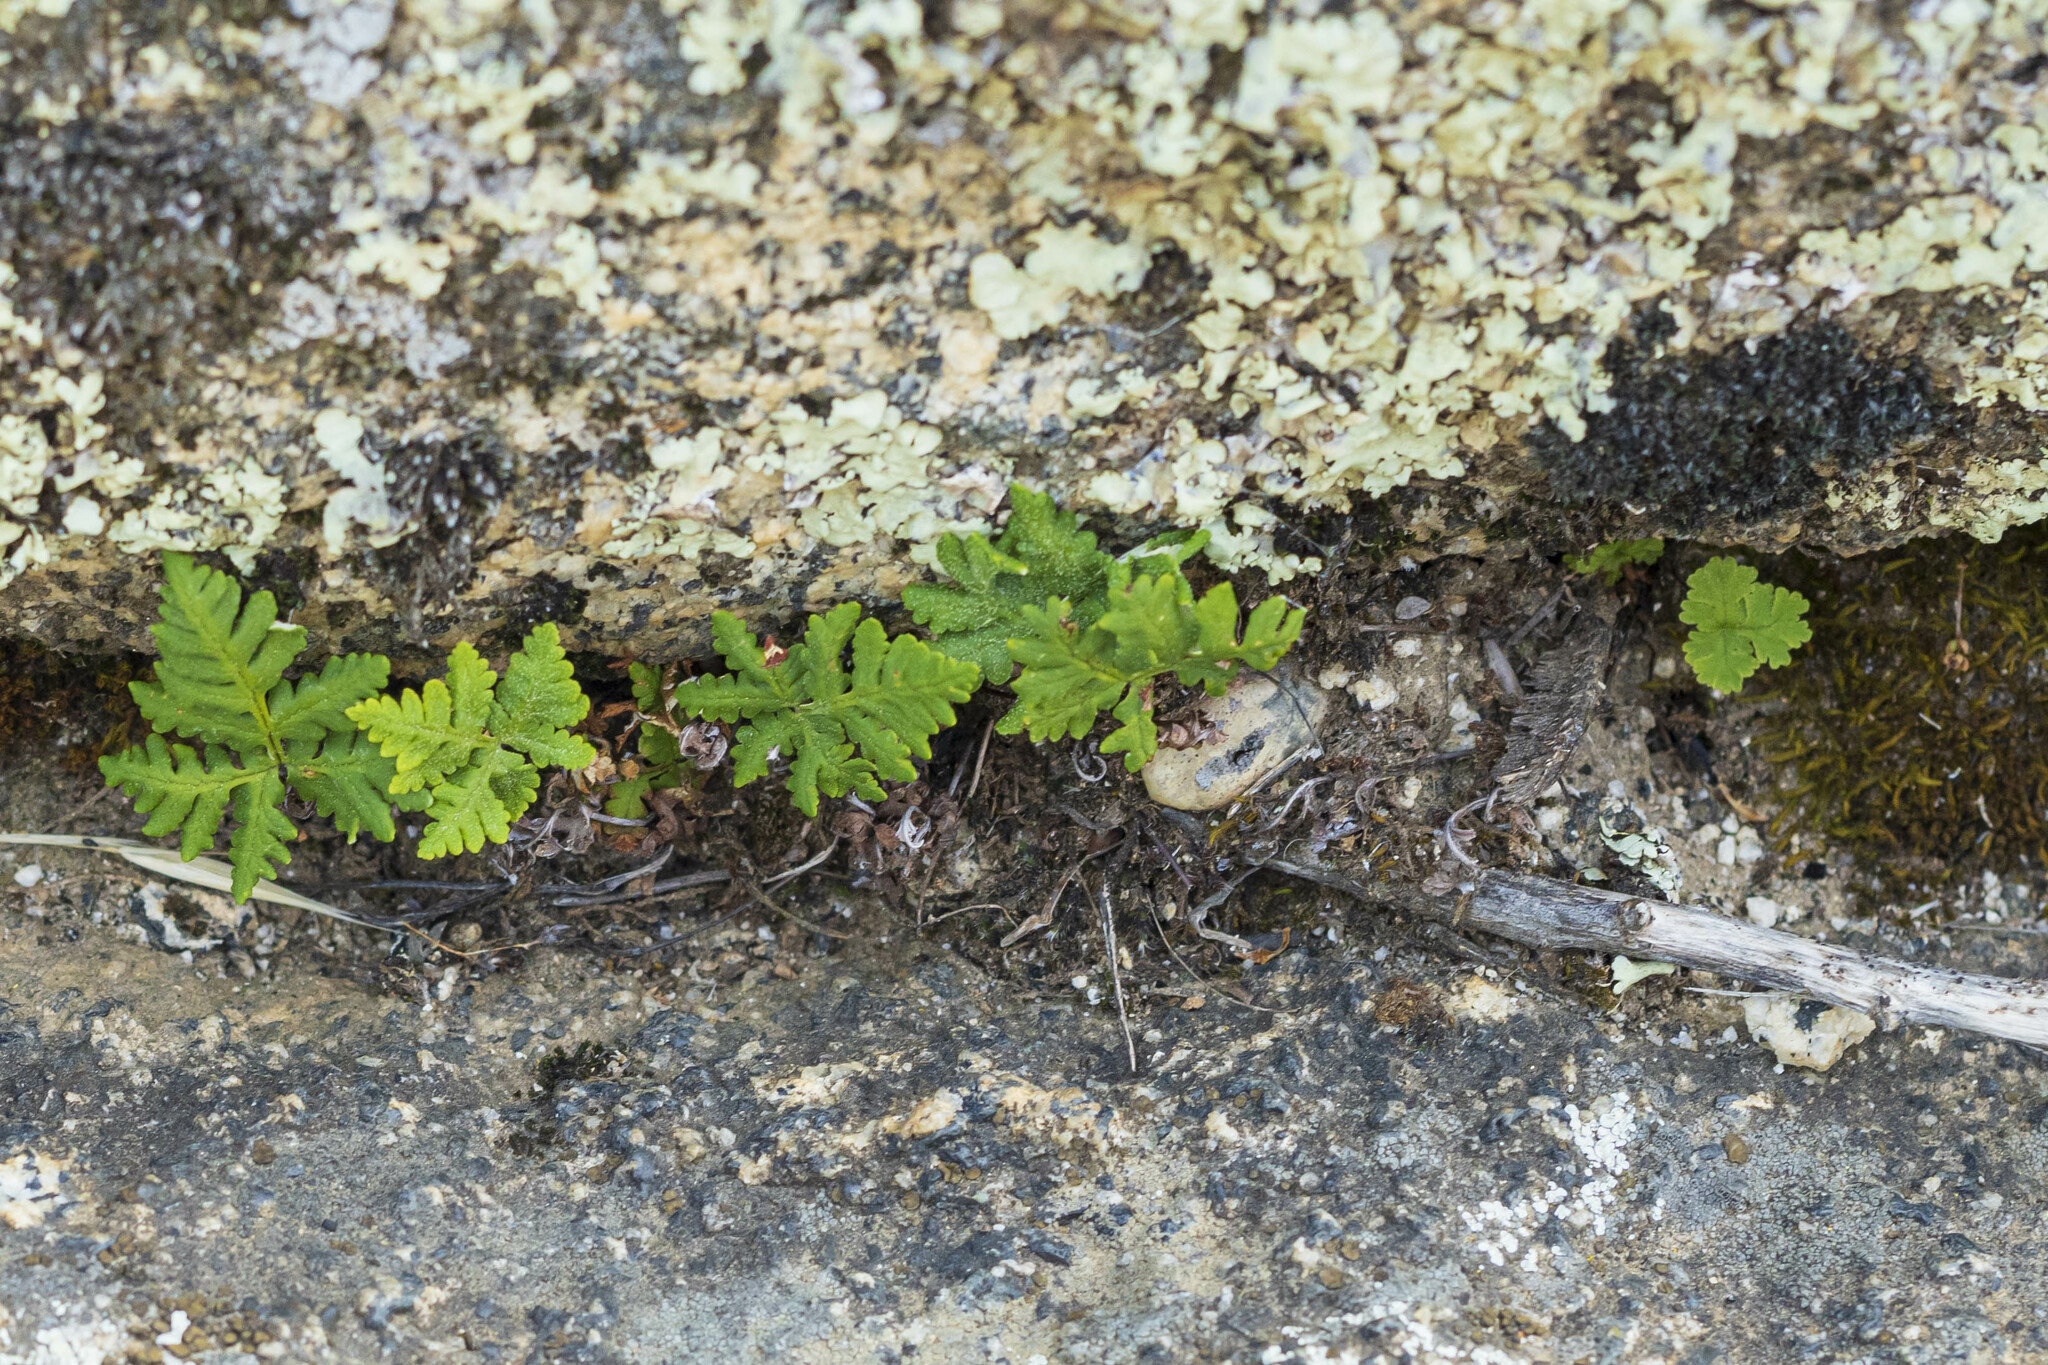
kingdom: Plantae
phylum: Tracheophyta
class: Polypodiopsida
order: Polypodiales
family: Pteridaceae
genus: Pentagramma
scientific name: Pentagramma rebmanii
